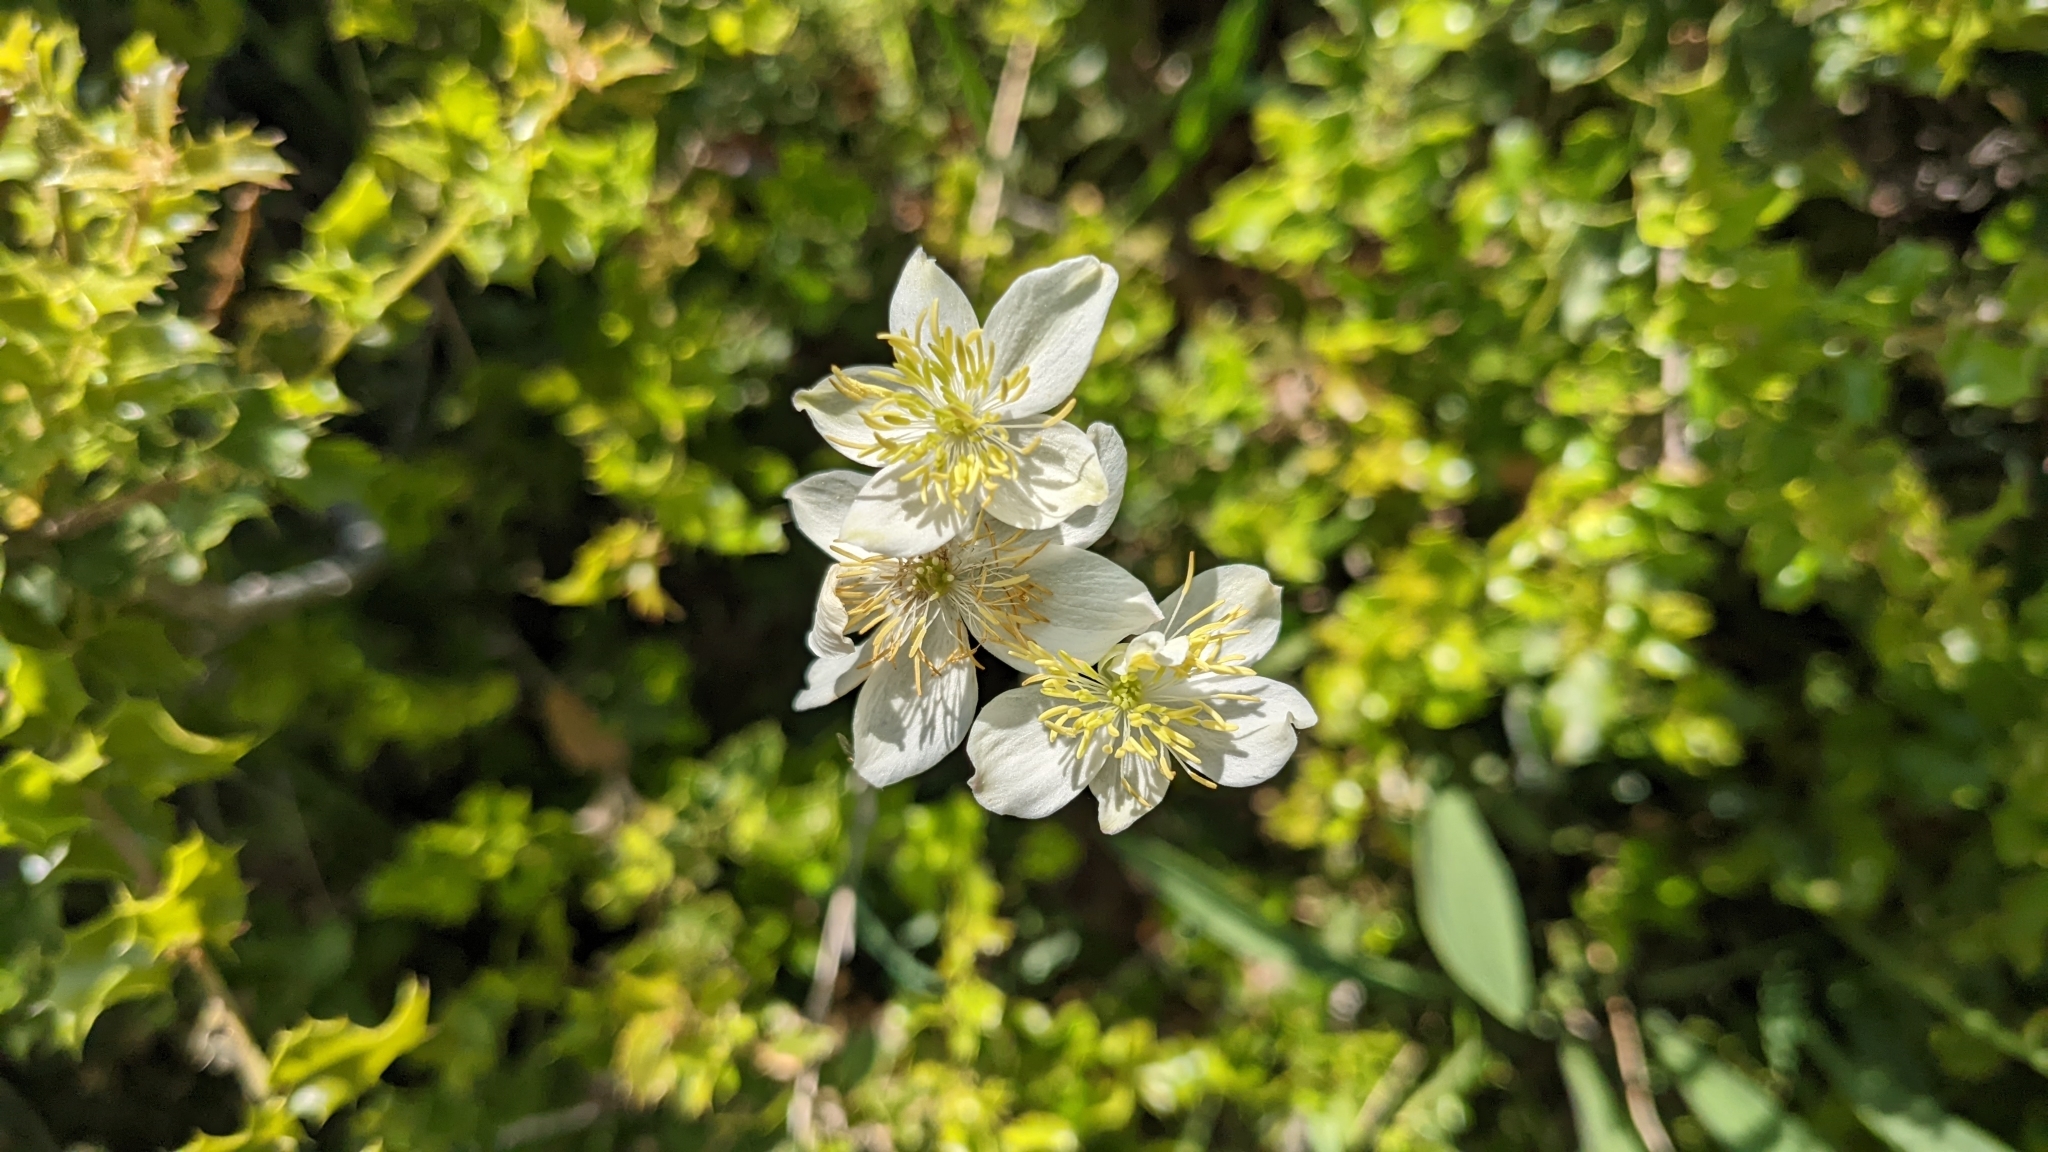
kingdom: Plantae
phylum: Tracheophyta
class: Magnoliopsida
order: Ranunculales
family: Ranunculaceae
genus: Thalictrum
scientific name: Thalictrum tuberosum
